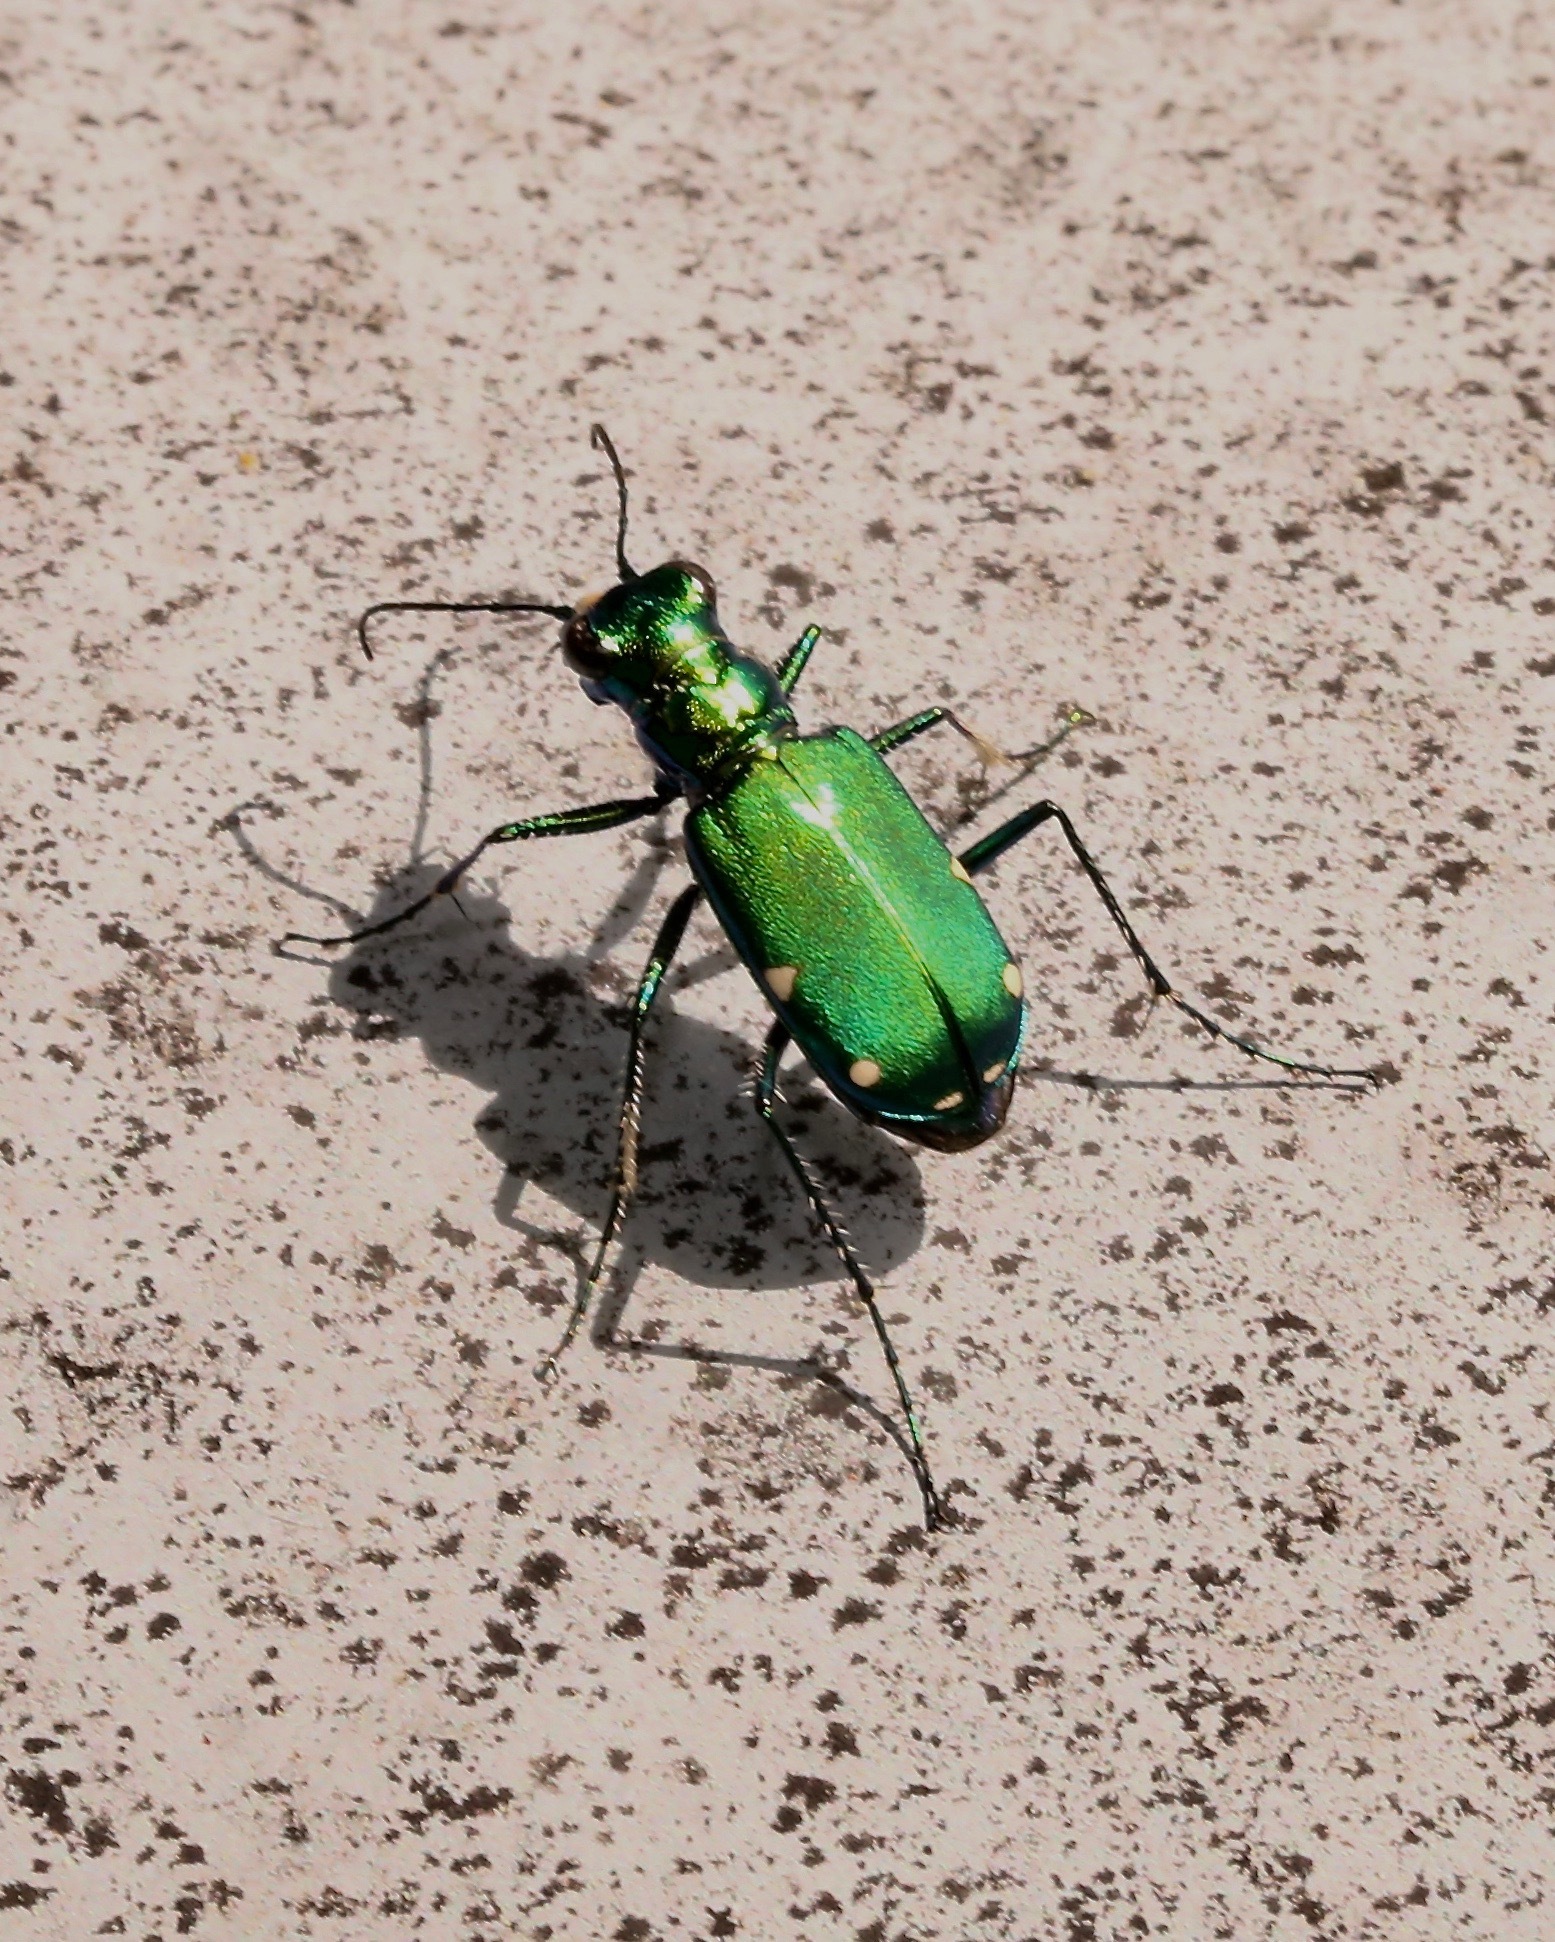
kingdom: Animalia
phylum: Arthropoda
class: Insecta
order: Coleoptera
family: Carabidae
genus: Cicindela
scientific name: Cicindela sexguttata
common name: Six-spotted tiger beetle
